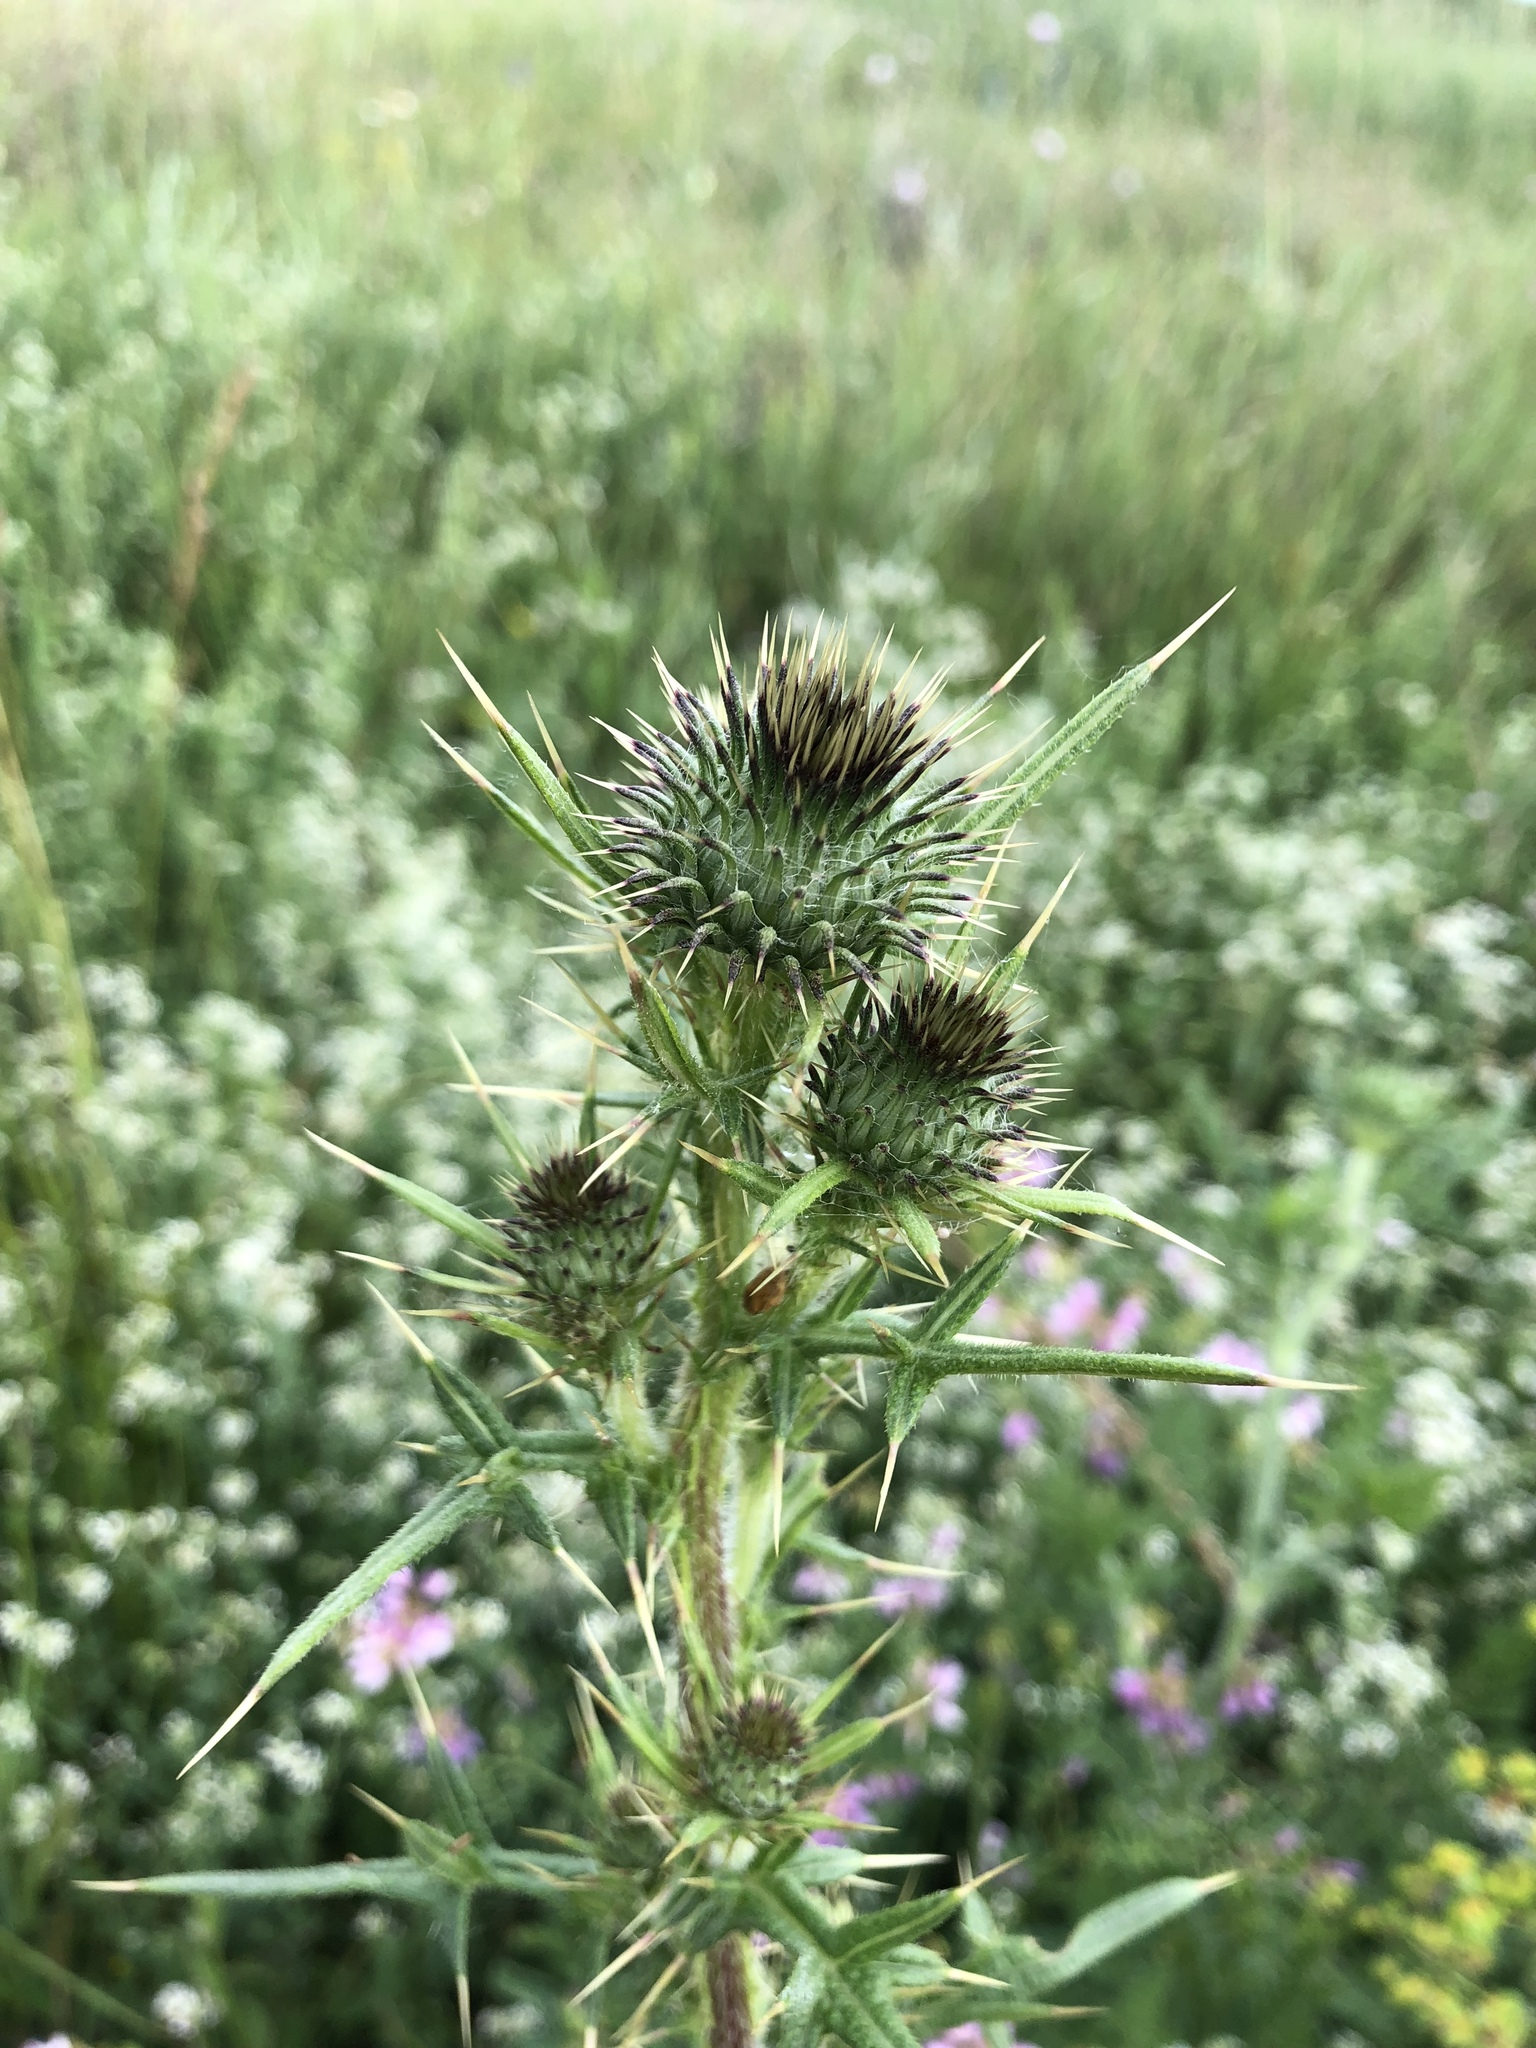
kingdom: Plantae
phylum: Tracheophyta
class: Magnoliopsida
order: Asterales
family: Asteraceae
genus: Cirsium
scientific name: Cirsium vulgare
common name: Bull thistle
